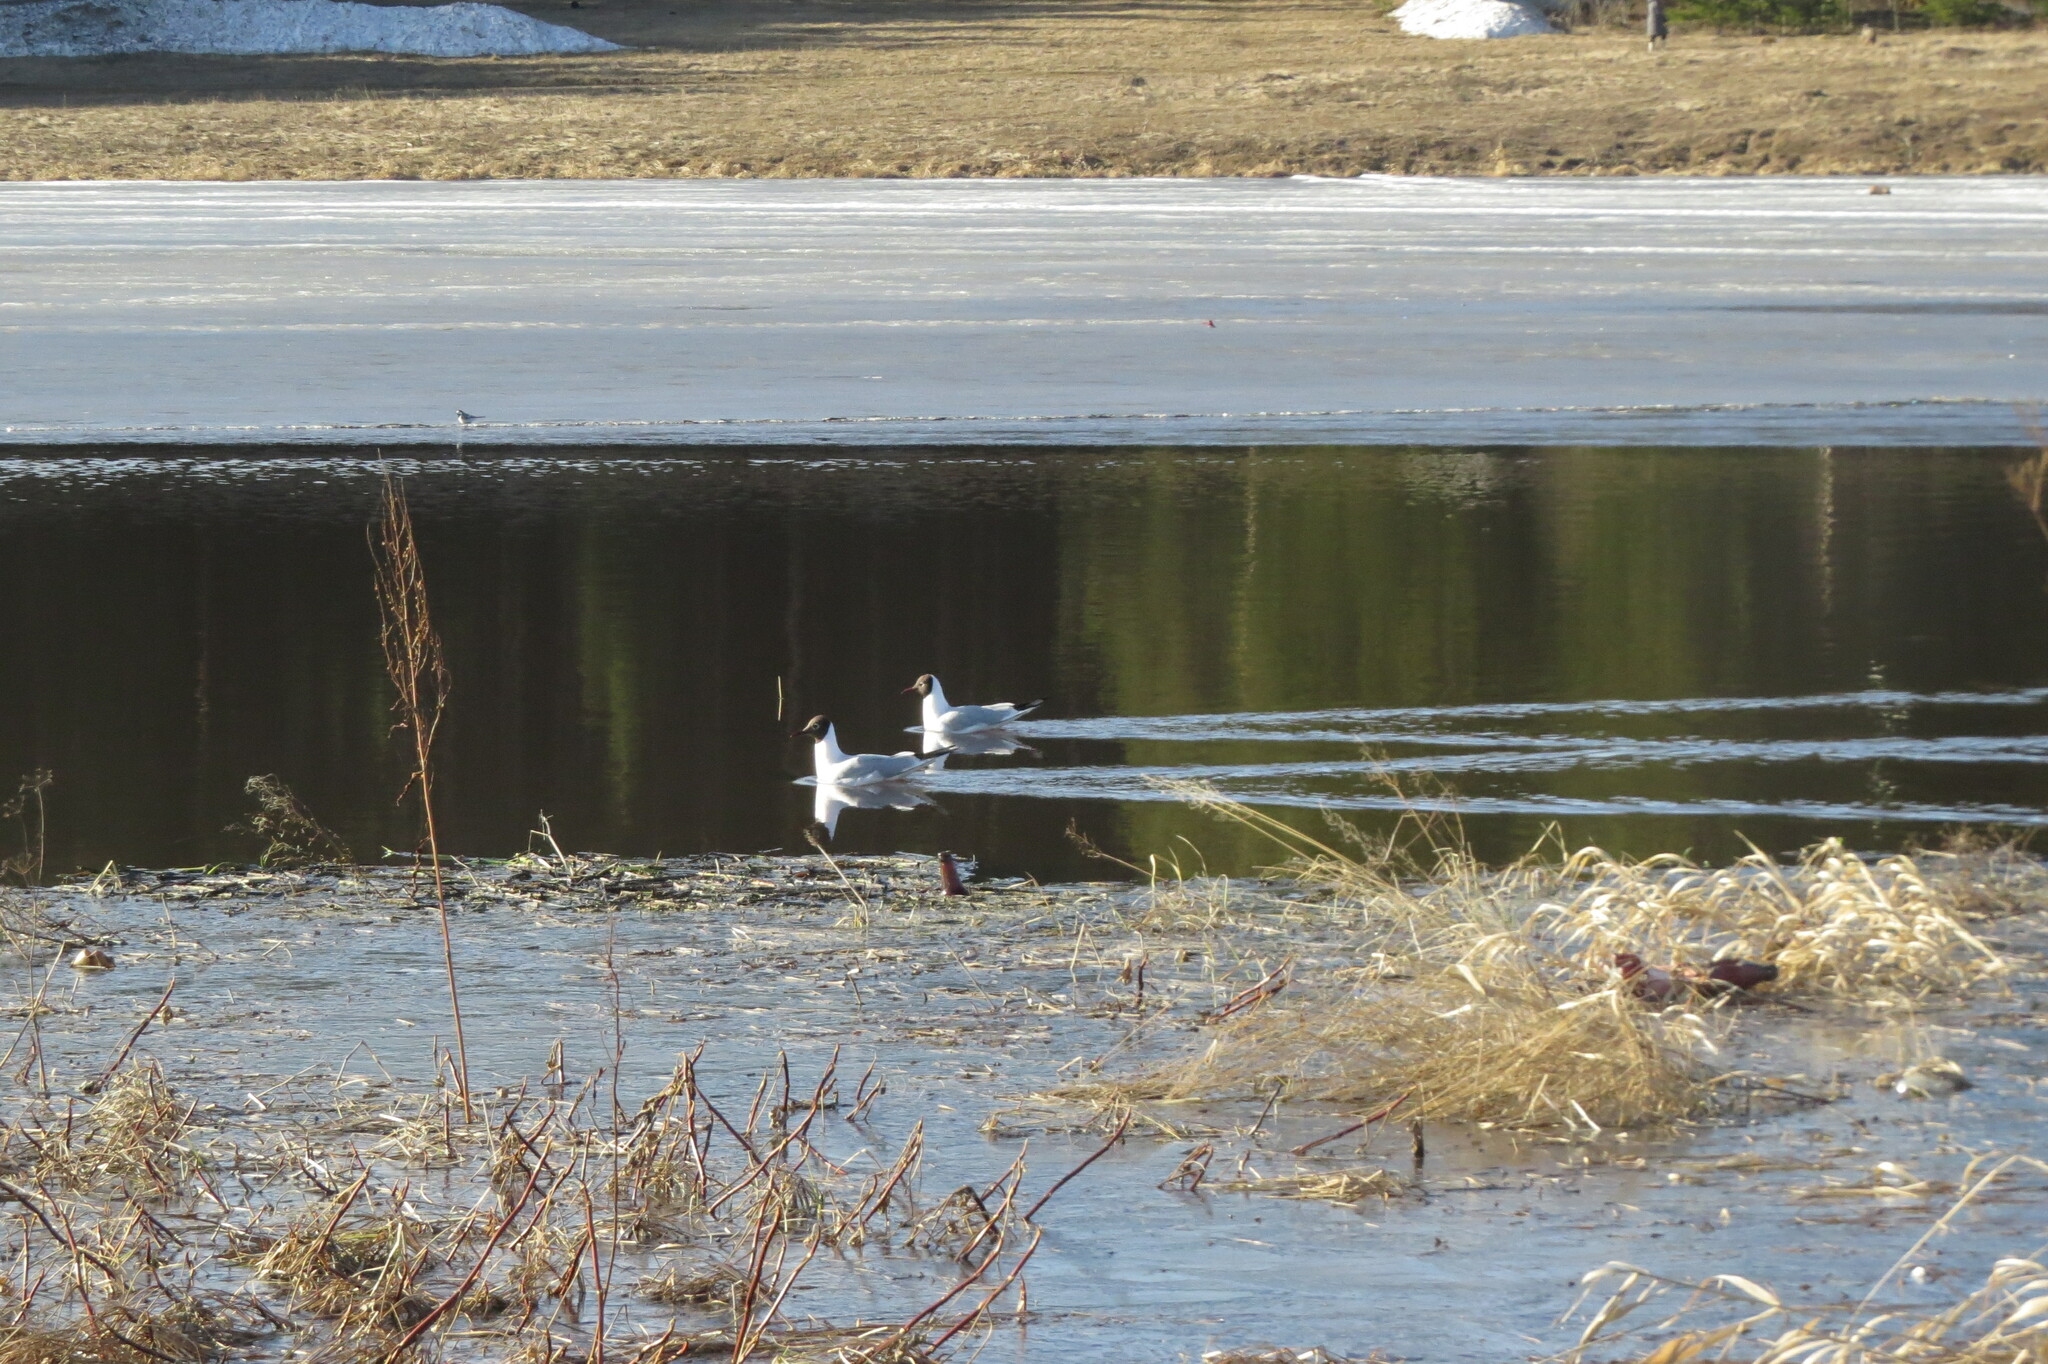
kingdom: Animalia
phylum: Chordata
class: Aves
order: Charadriiformes
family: Laridae
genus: Chroicocephalus
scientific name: Chroicocephalus ridibundus
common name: Black-headed gull
